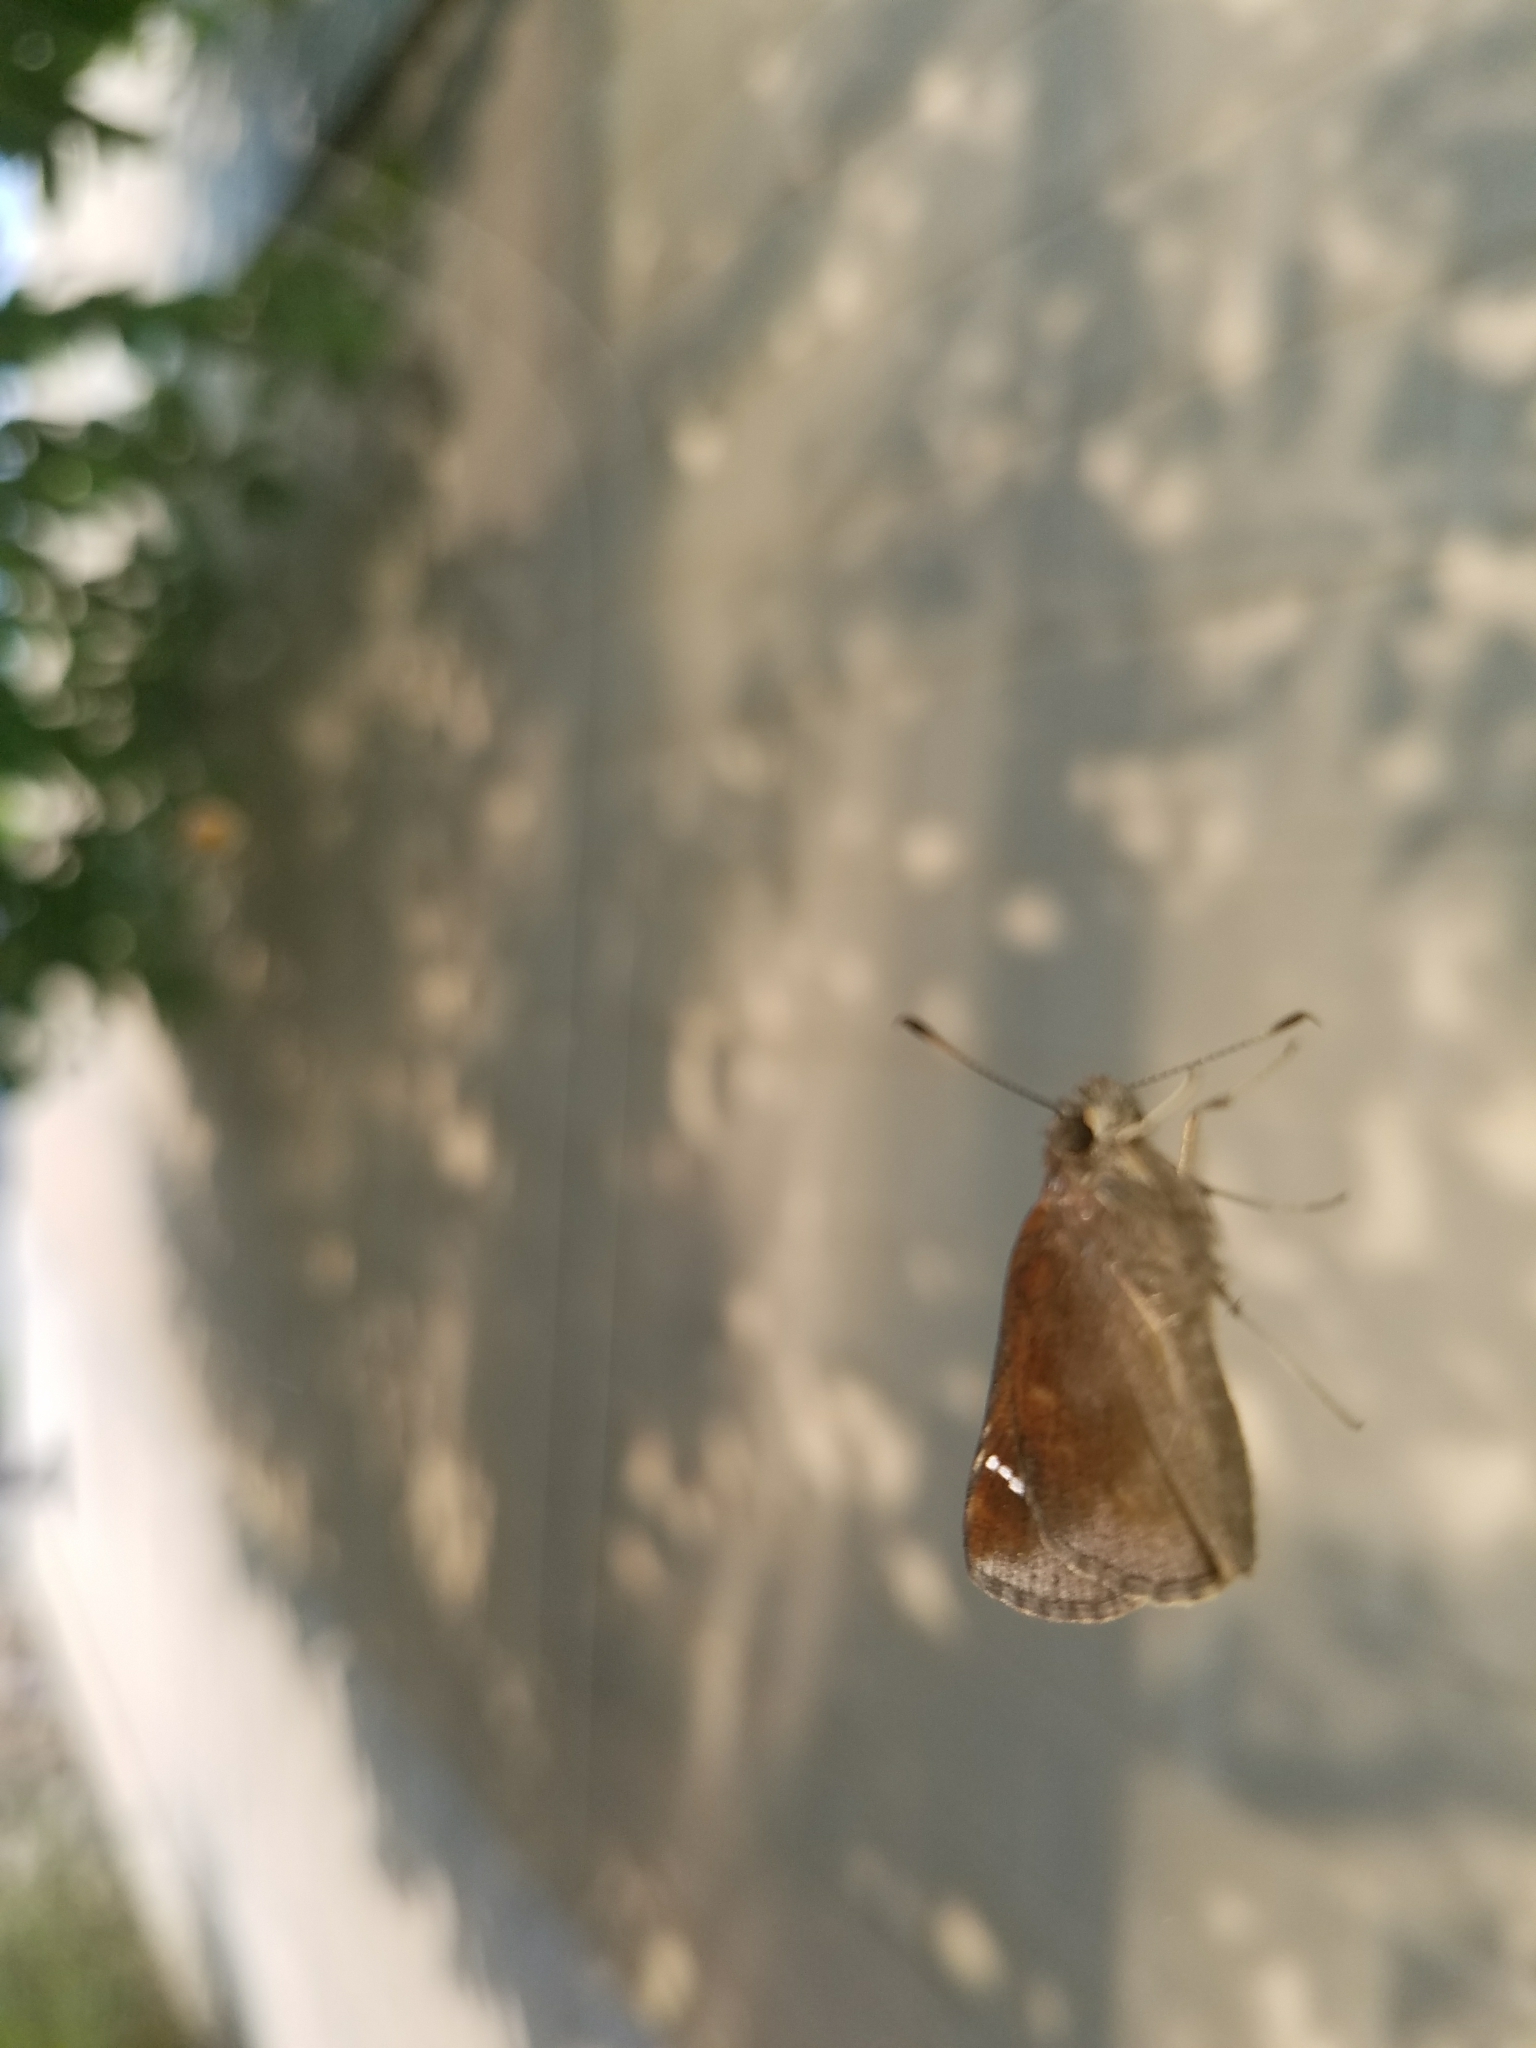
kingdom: Animalia
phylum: Arthropoda
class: Insecta
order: Lepidoptera
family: Hesperiidae
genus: Lerema
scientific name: Lerema accius
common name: Clouded skipper
